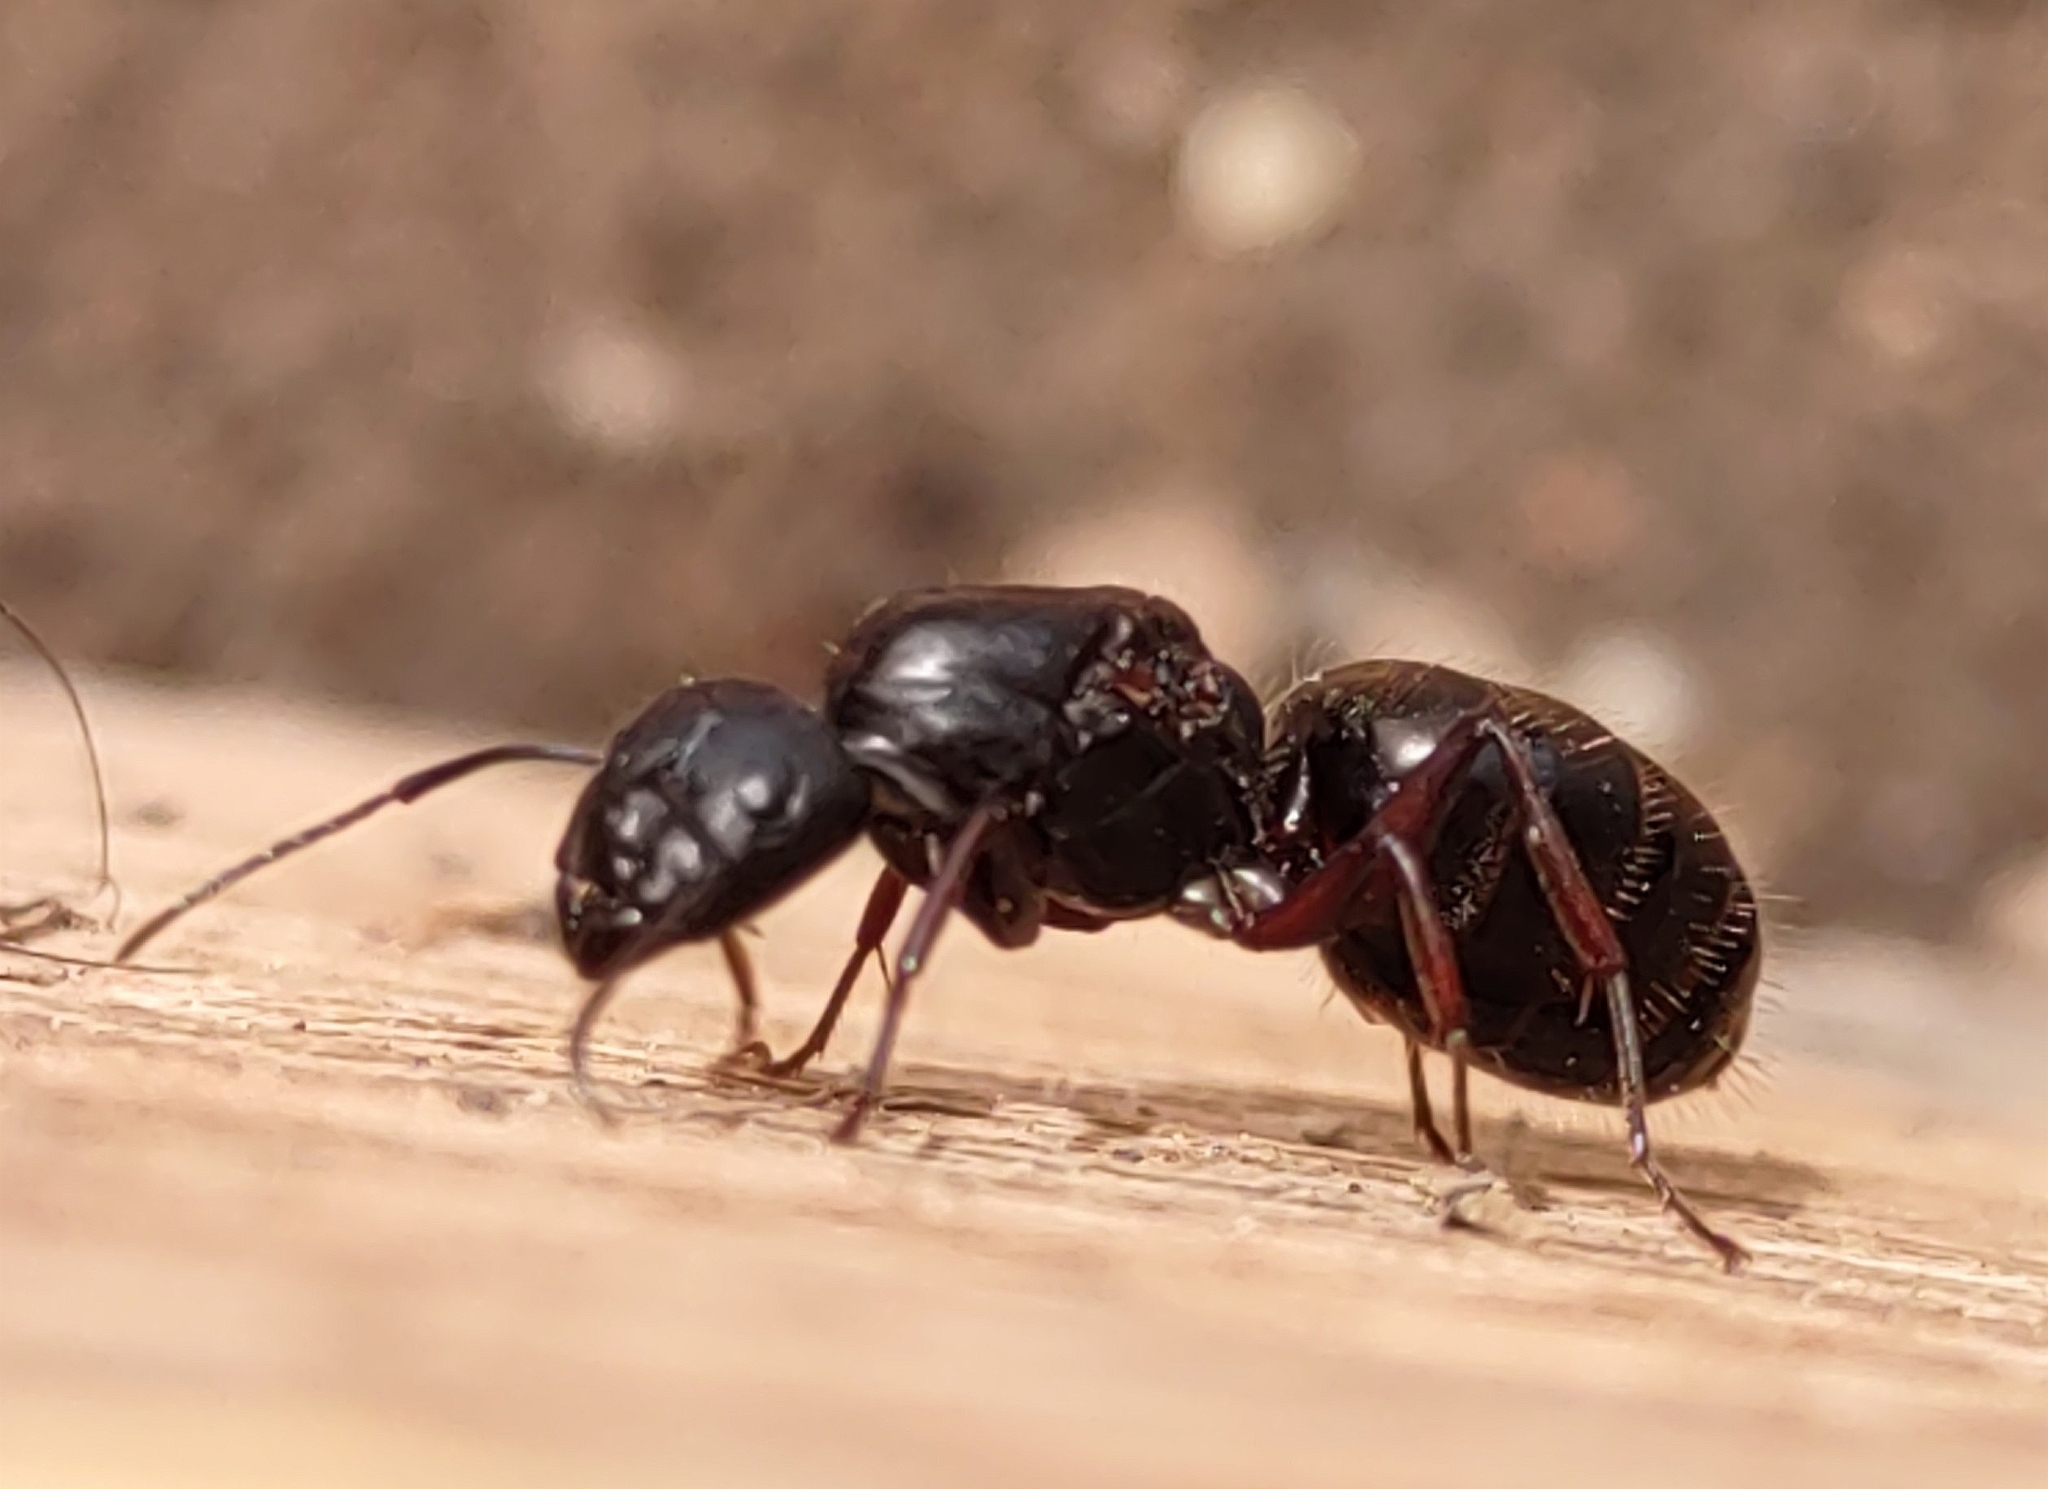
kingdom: Animalia
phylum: Arthropoda
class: Insecta
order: Hymenoptera
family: Formicidae
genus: Camponotus
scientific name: Camponotus modoc
